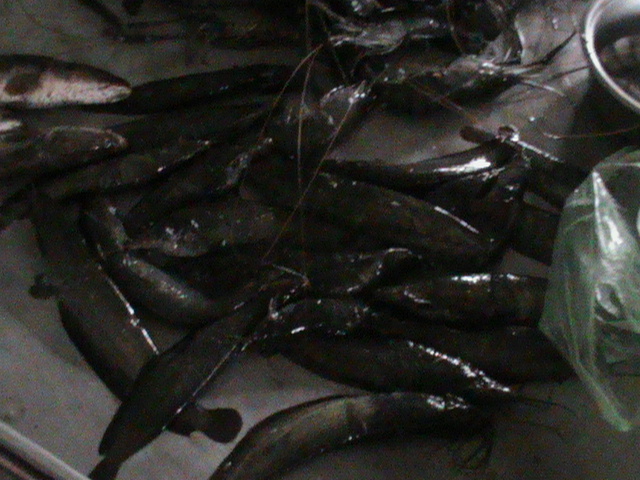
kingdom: Animalia
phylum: Chordata
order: Siluriformes
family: Heteropneustidae
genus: Heteropneustes
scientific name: Heteropneustes fossilis
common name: Stinging catfish
